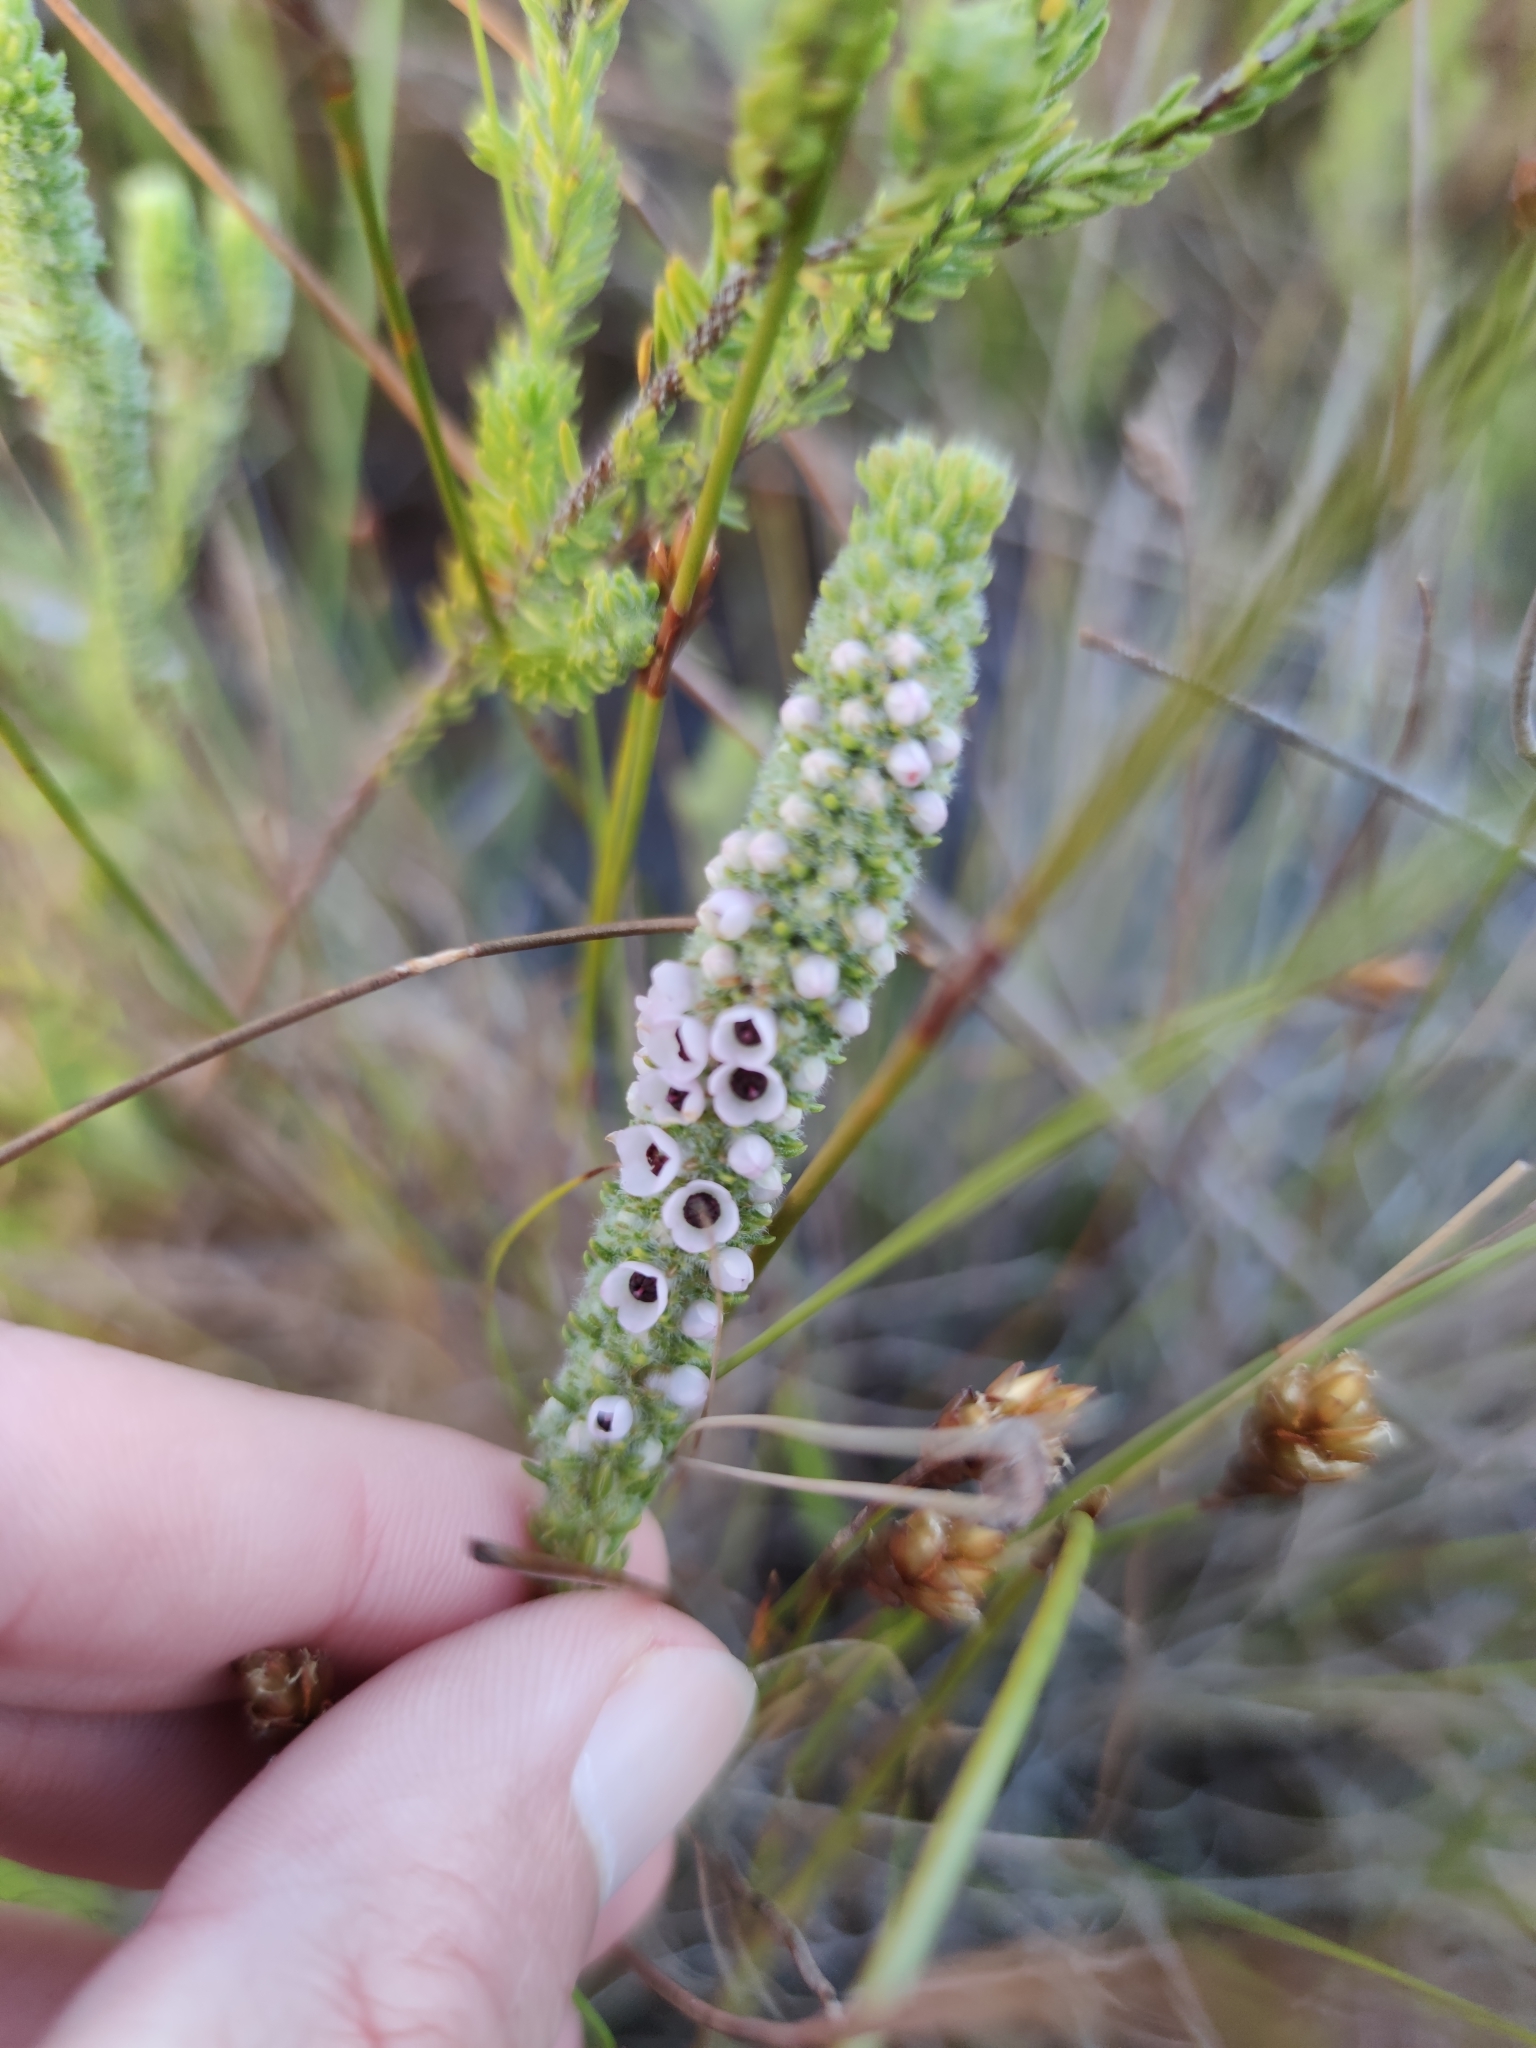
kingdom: Plantae
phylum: Tracheophyta
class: Magnoliopsida
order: Ericales
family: Ericaceae
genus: Erica
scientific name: Erica pyxidiflora
